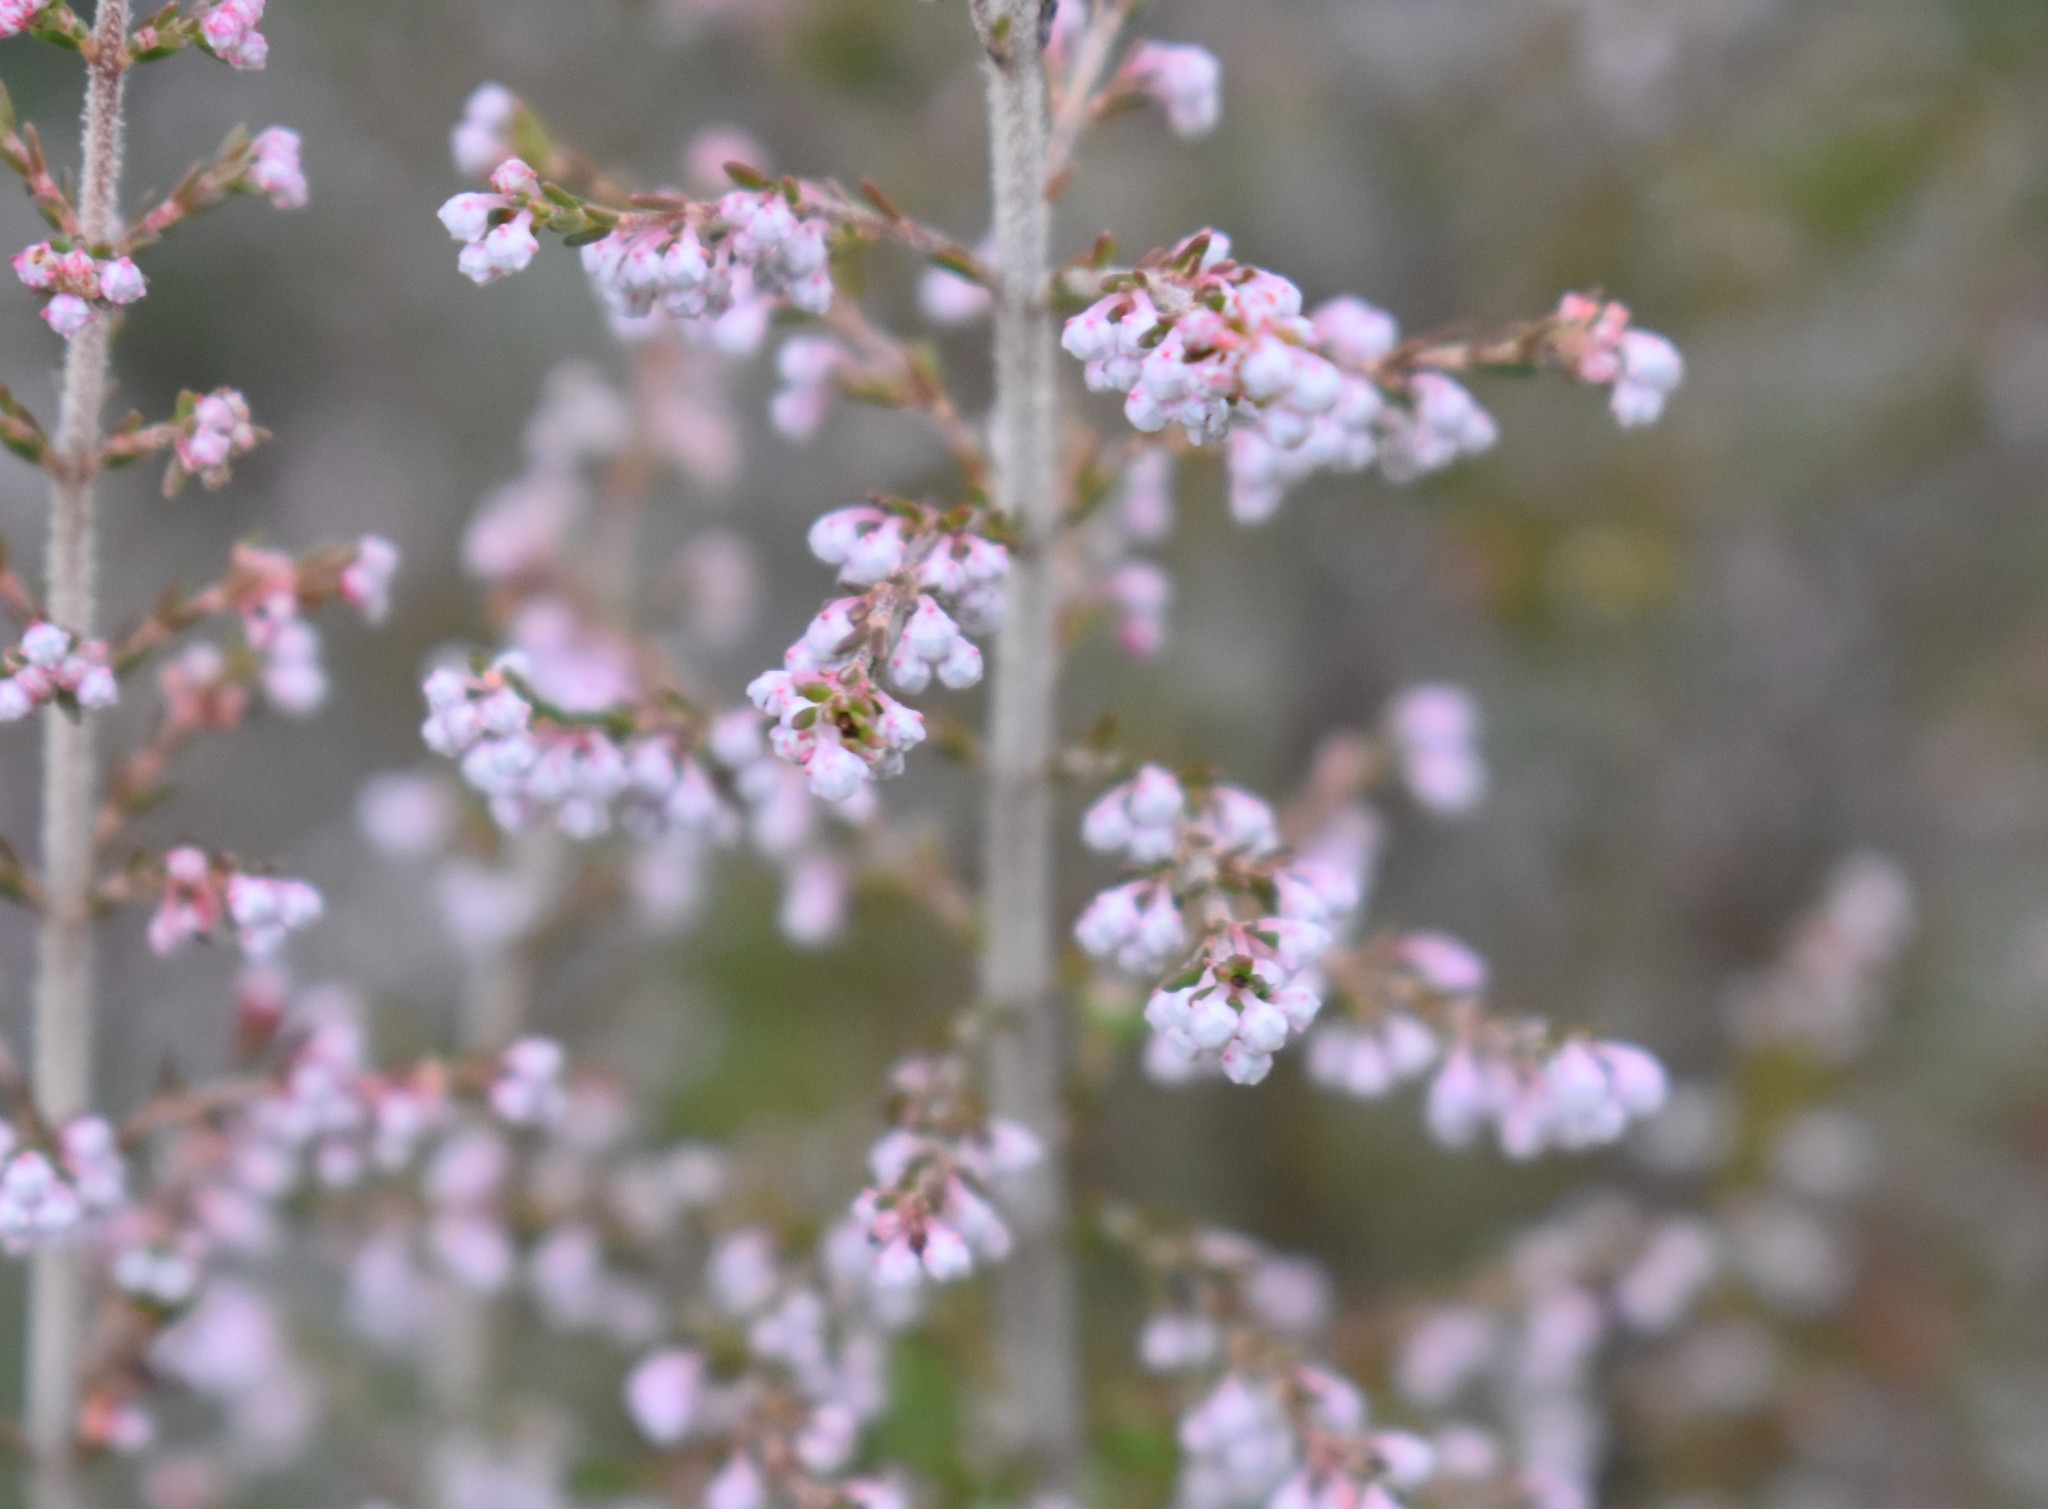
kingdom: Plantae
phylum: Tracheophyta
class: Magnoliopsida
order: Ericales
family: Ericaceae
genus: Erica
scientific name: Erica formosa
